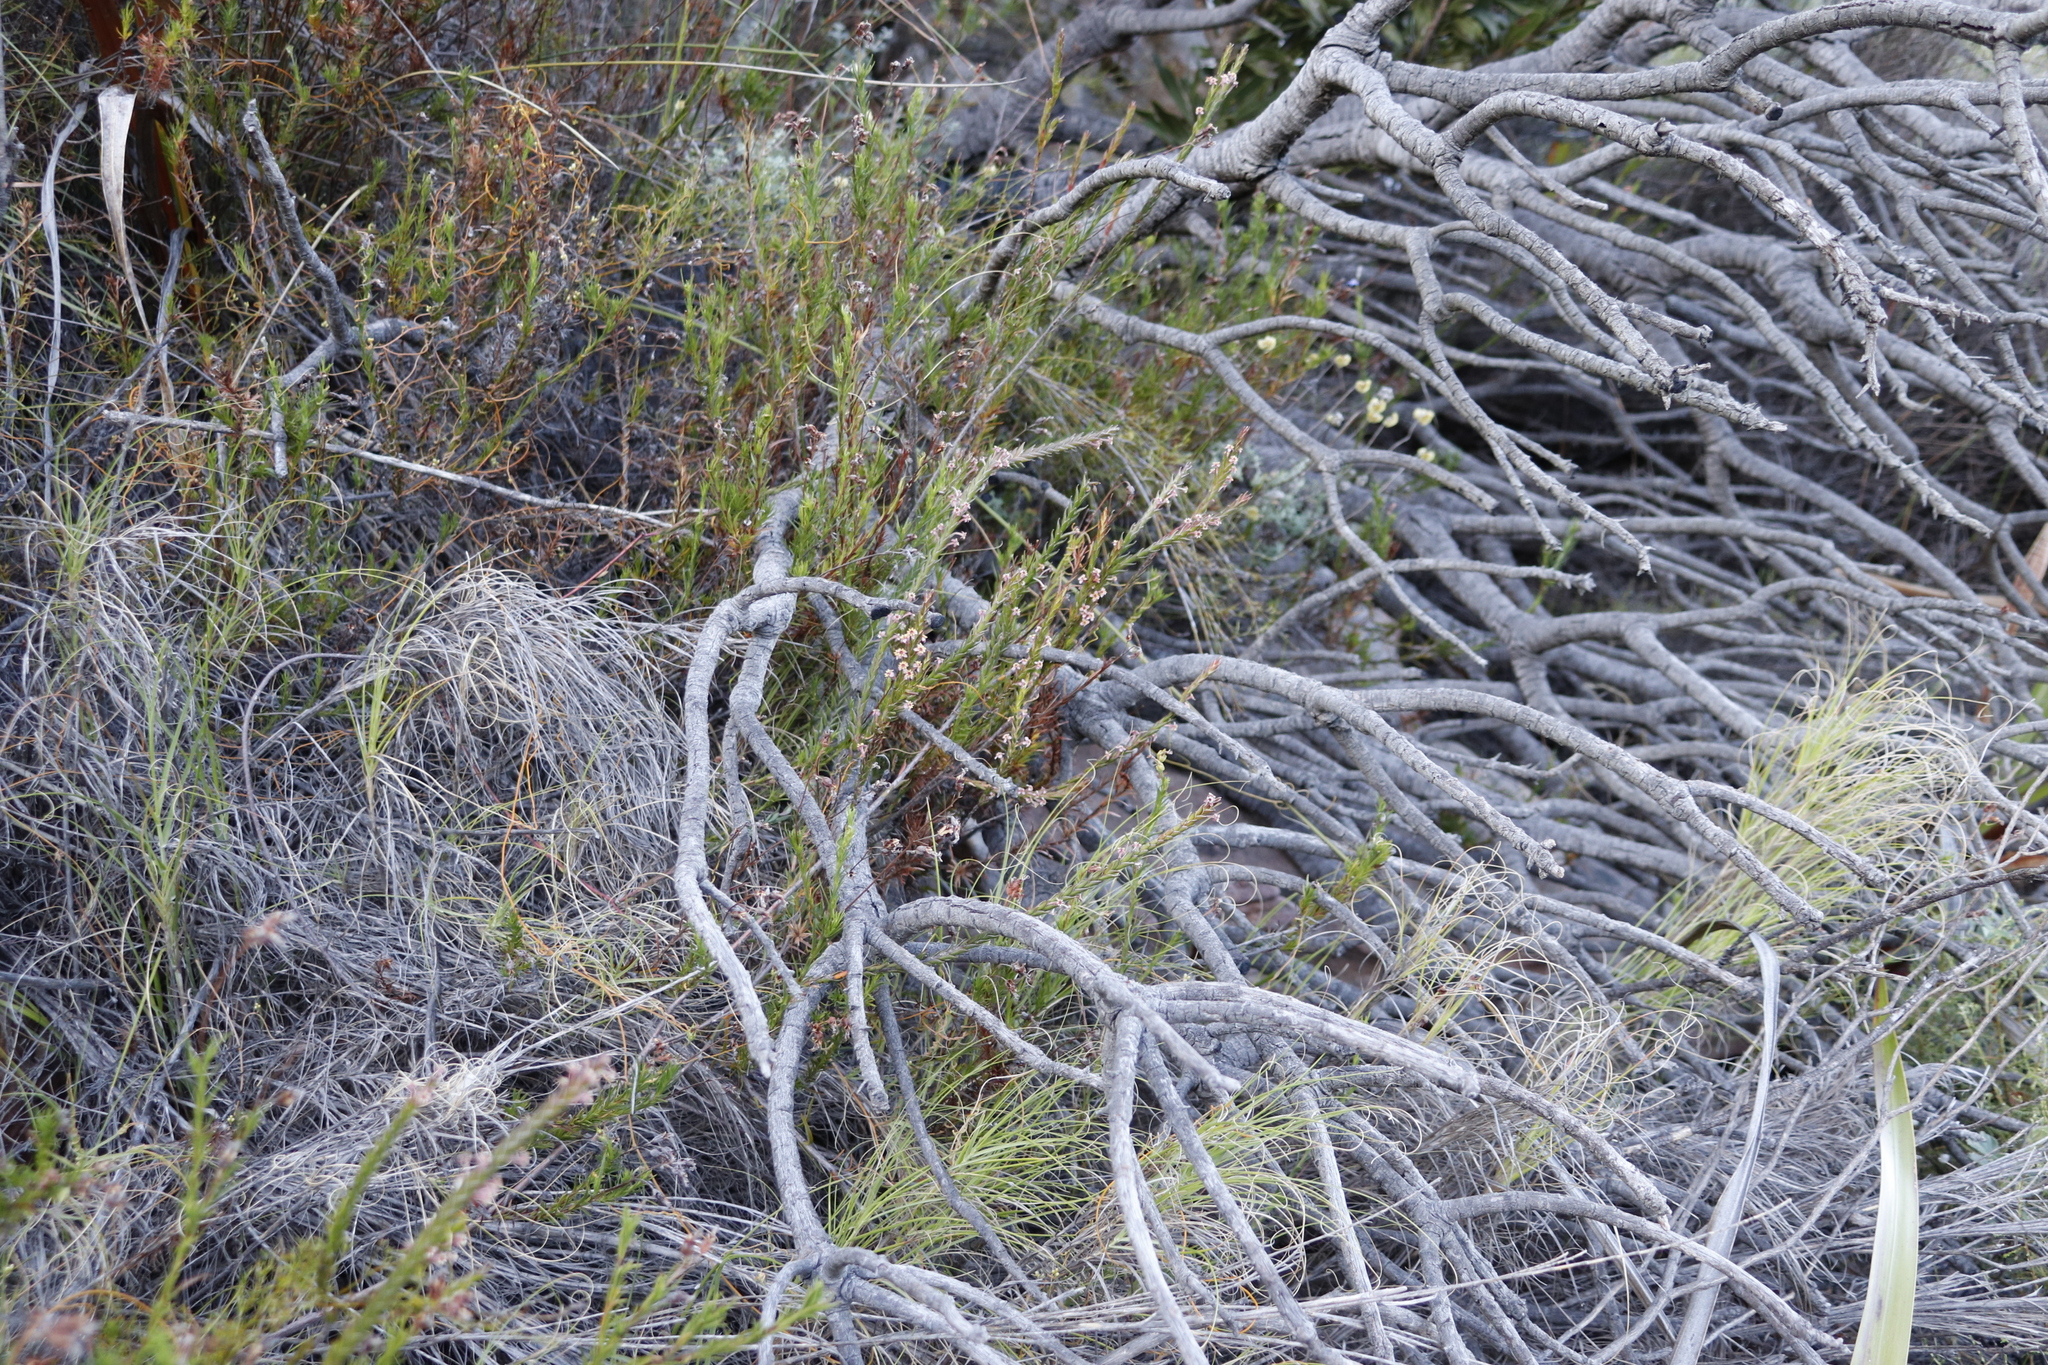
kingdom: Plantae
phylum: Tracheophyta
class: Magnoliopsida
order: Malvales
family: Thymelaeaceae
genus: Struthiola
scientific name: Struthiola ciliata
